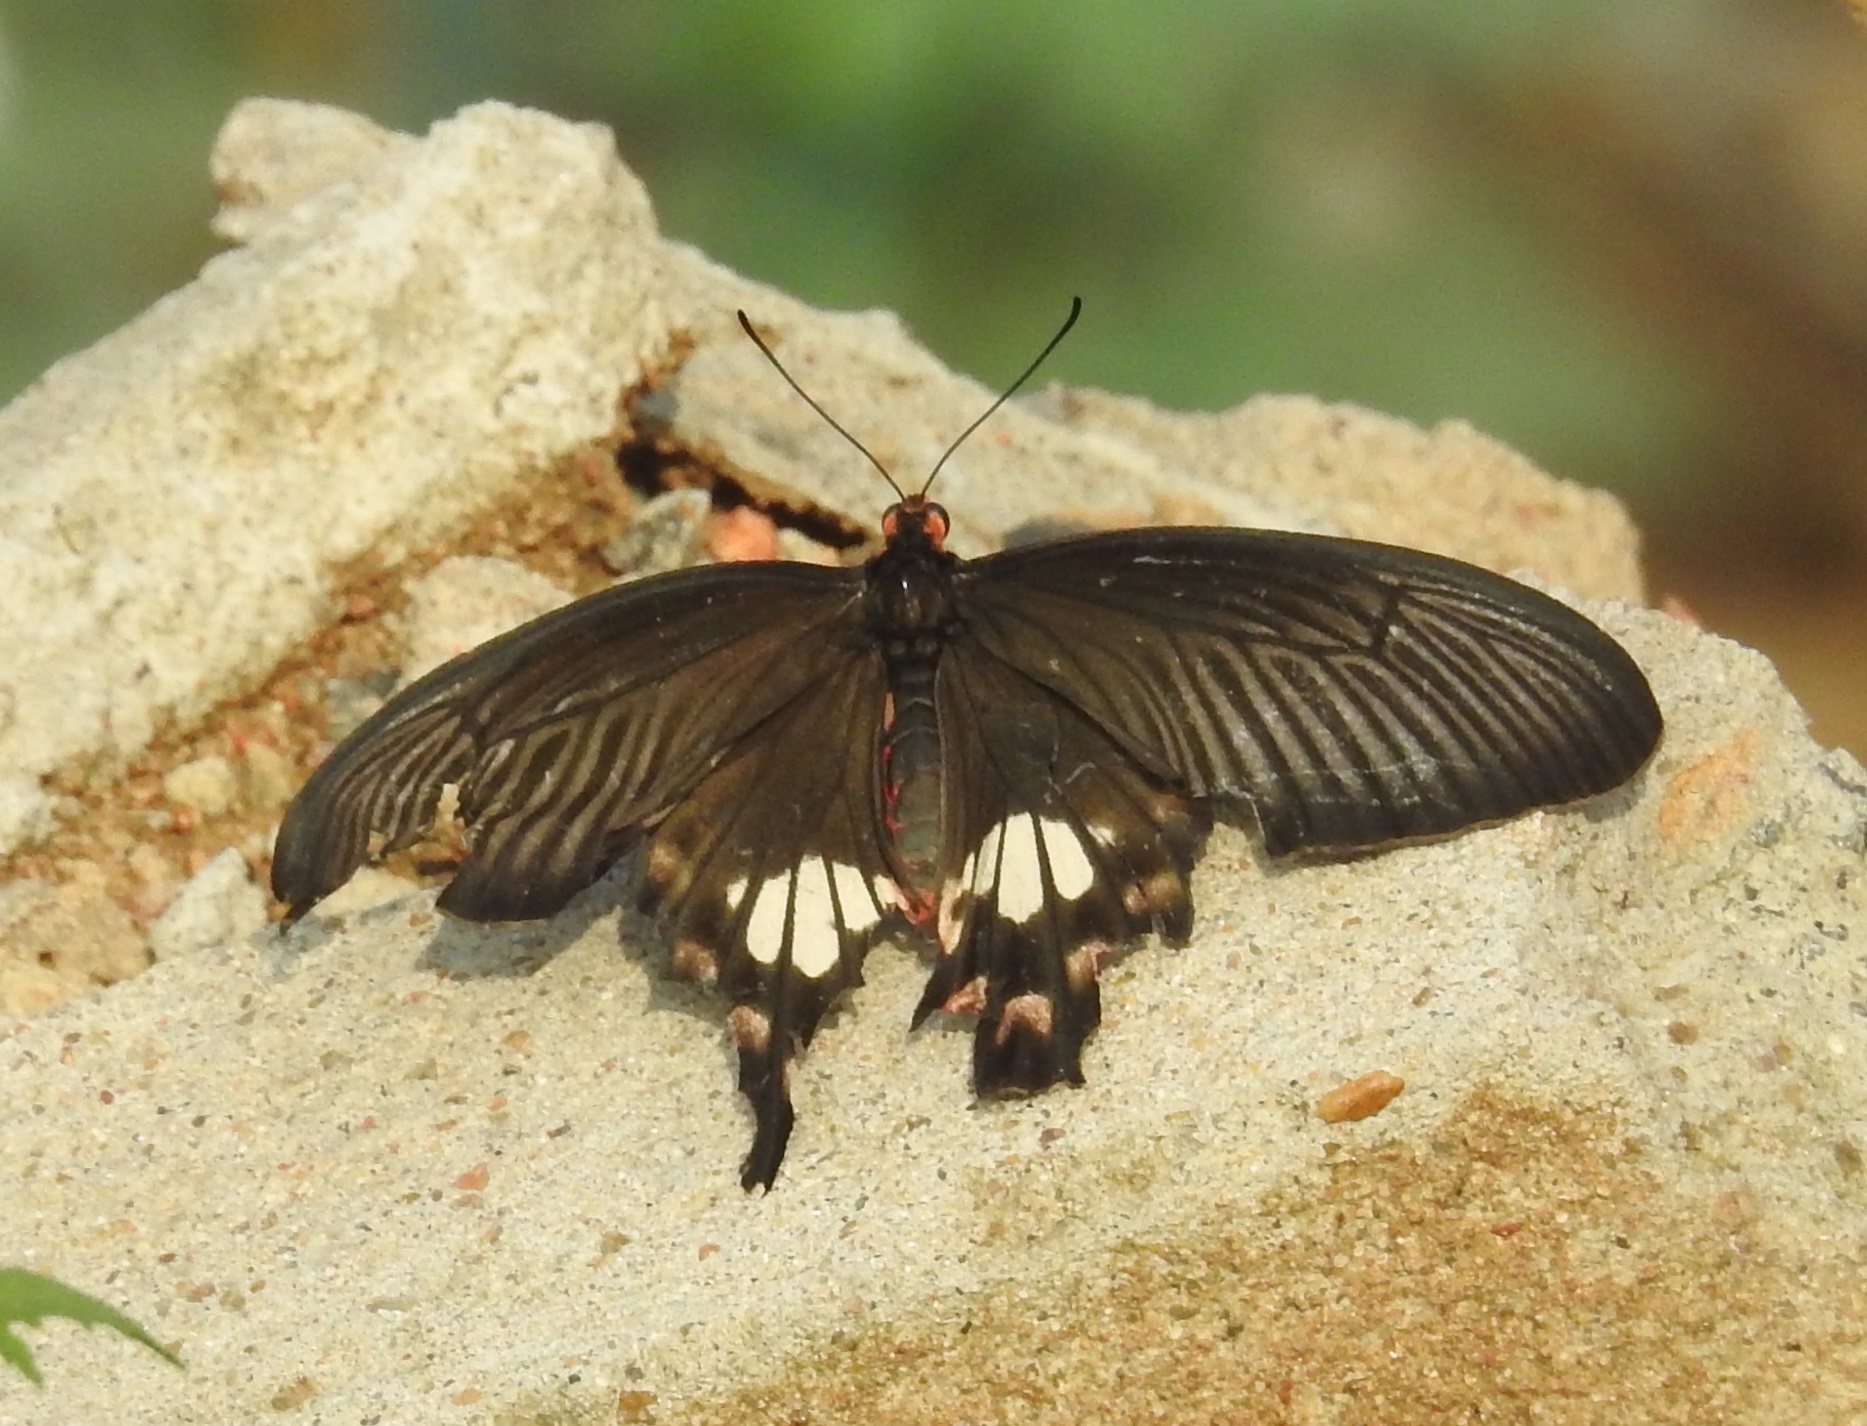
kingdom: Animalia
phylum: Arthropoda
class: Insecta
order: Lepidoptera
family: Papilionidae
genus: Pachliopta
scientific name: Pachliopta aristolochiae
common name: Common rose
